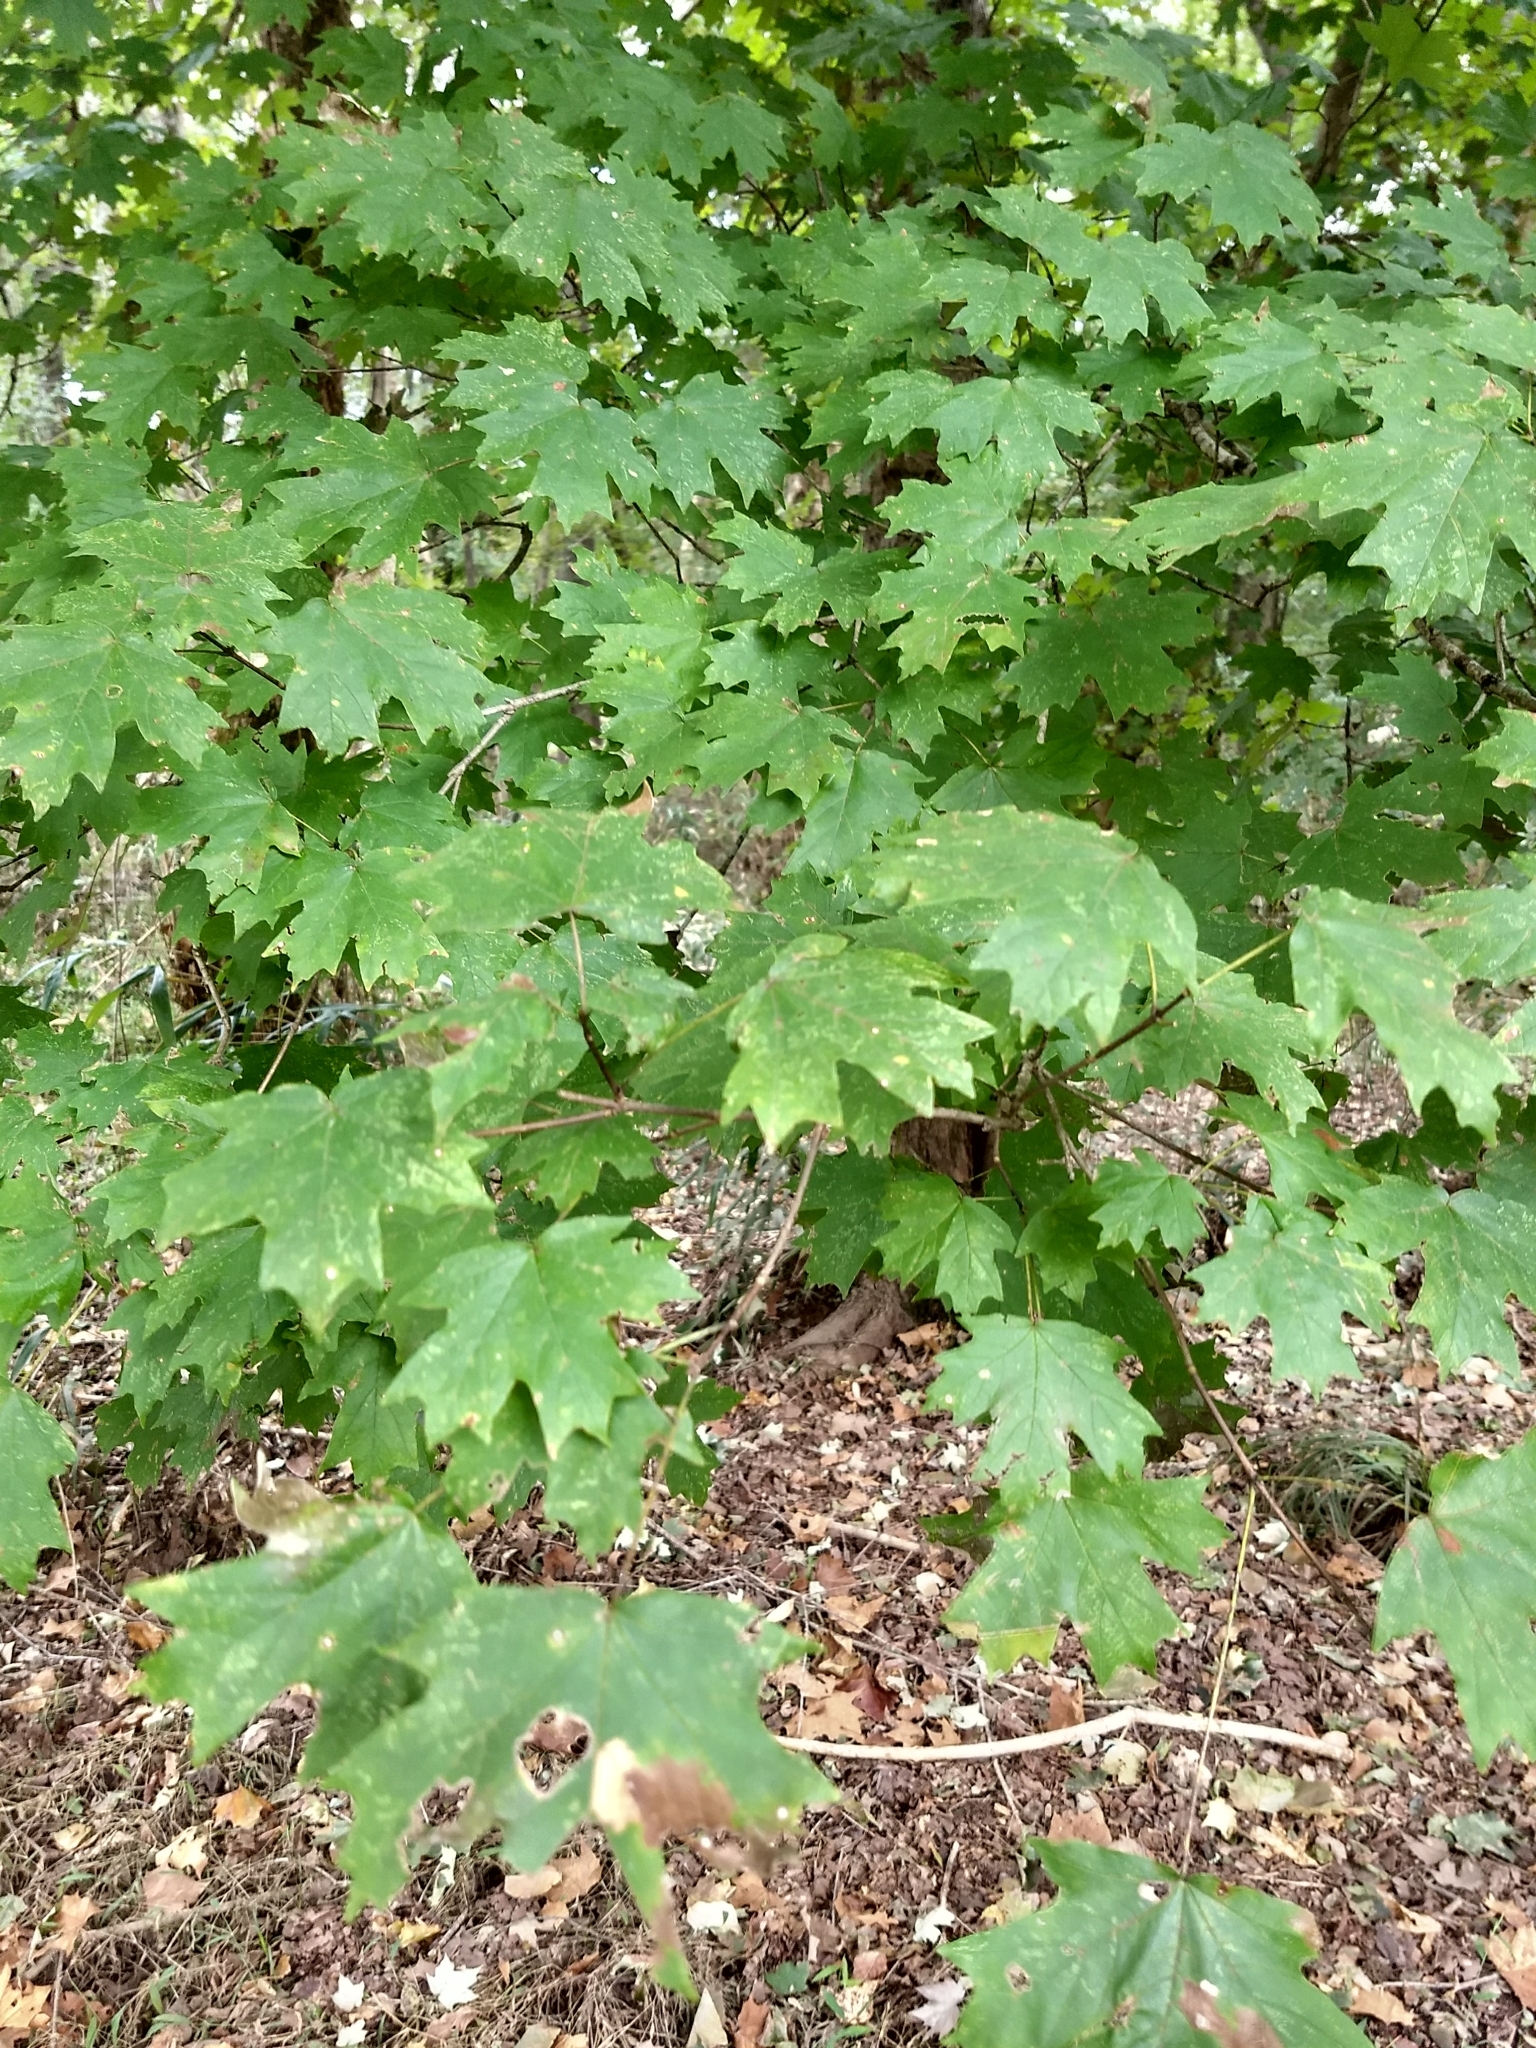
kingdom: Plantae
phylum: Tracheophyta
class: Magnoliopsida
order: Sapindales
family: Sapindaceae
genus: Acer
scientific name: Acer floridanum
